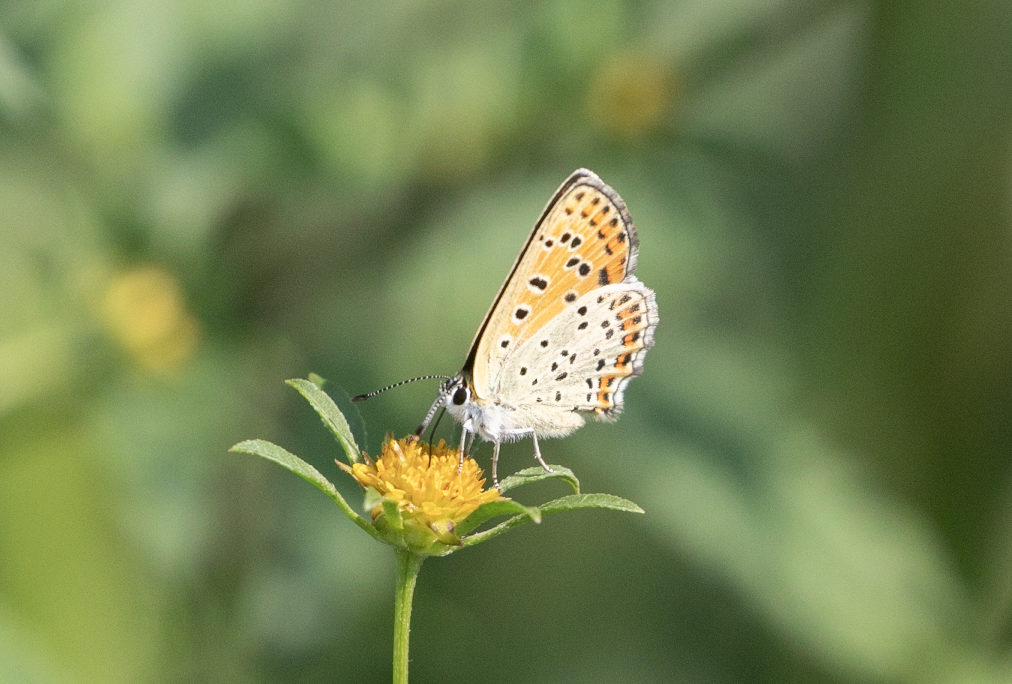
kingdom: Animalia
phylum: Arthropoda
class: Insecta
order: Lepidoptera
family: Lycaenidae
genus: Loweia
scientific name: Loweia tityrus
